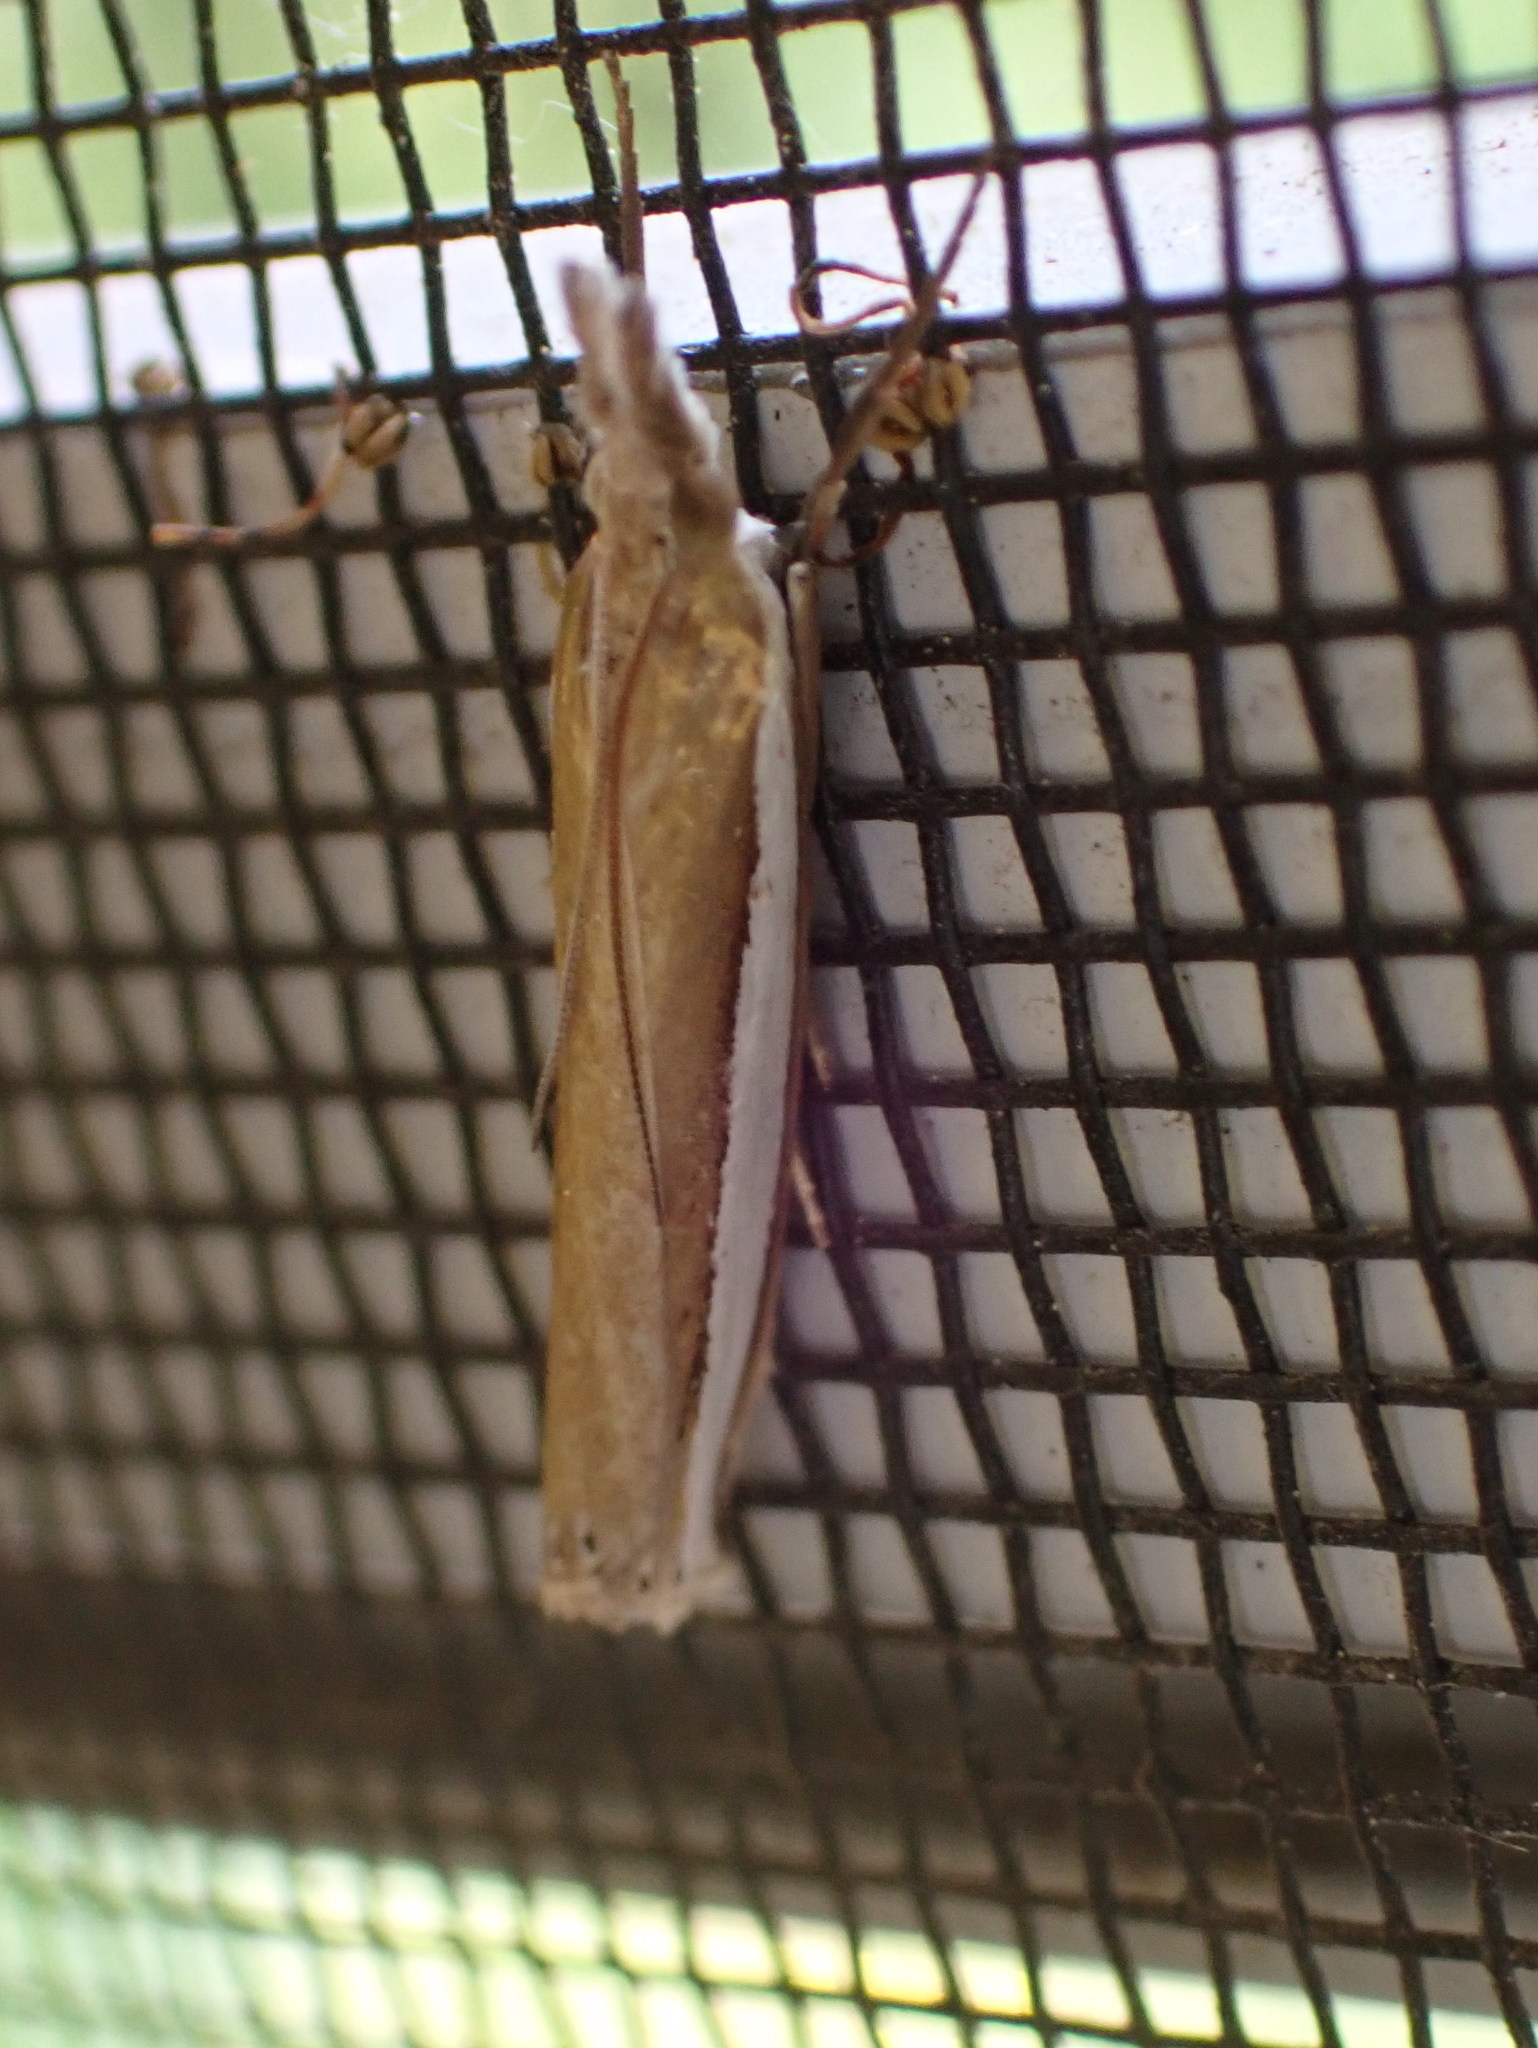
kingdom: Animalia
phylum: Arthropoda
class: Insecta
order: Lepidoptera
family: Crambidae
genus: Crambus
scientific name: Crambus unistriatellus
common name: Wide-stripe grass-veneer moth
